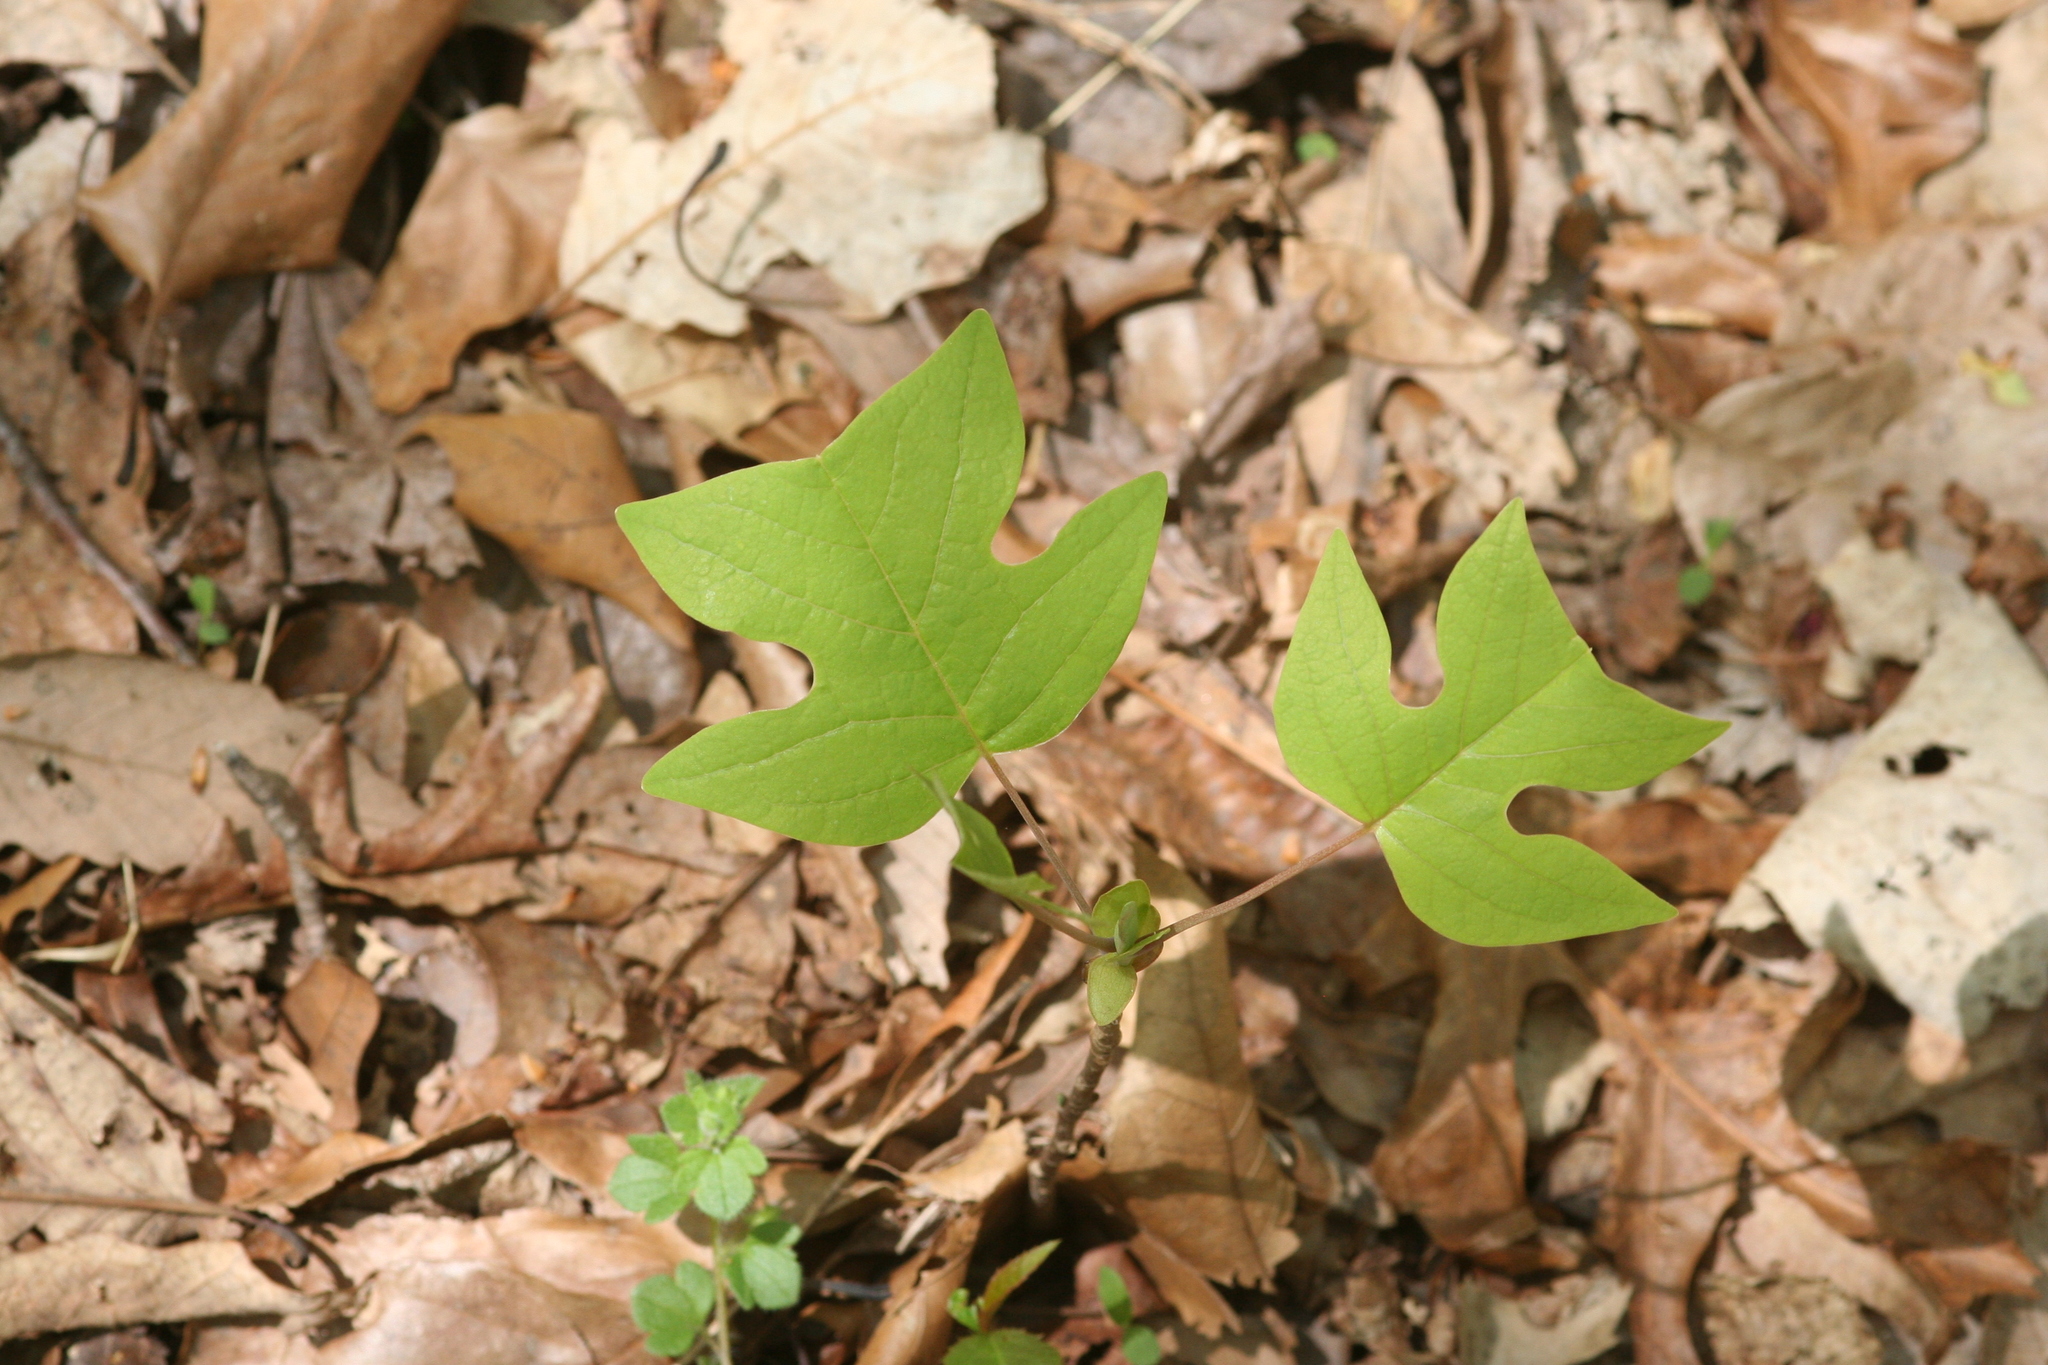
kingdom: Plantae
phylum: Tracheophyta
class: Magnoliopsida
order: Magnoliales
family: Magnoliaceae
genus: Liriodendron
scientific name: Liriodendron tulipifera
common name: Tulip tree
